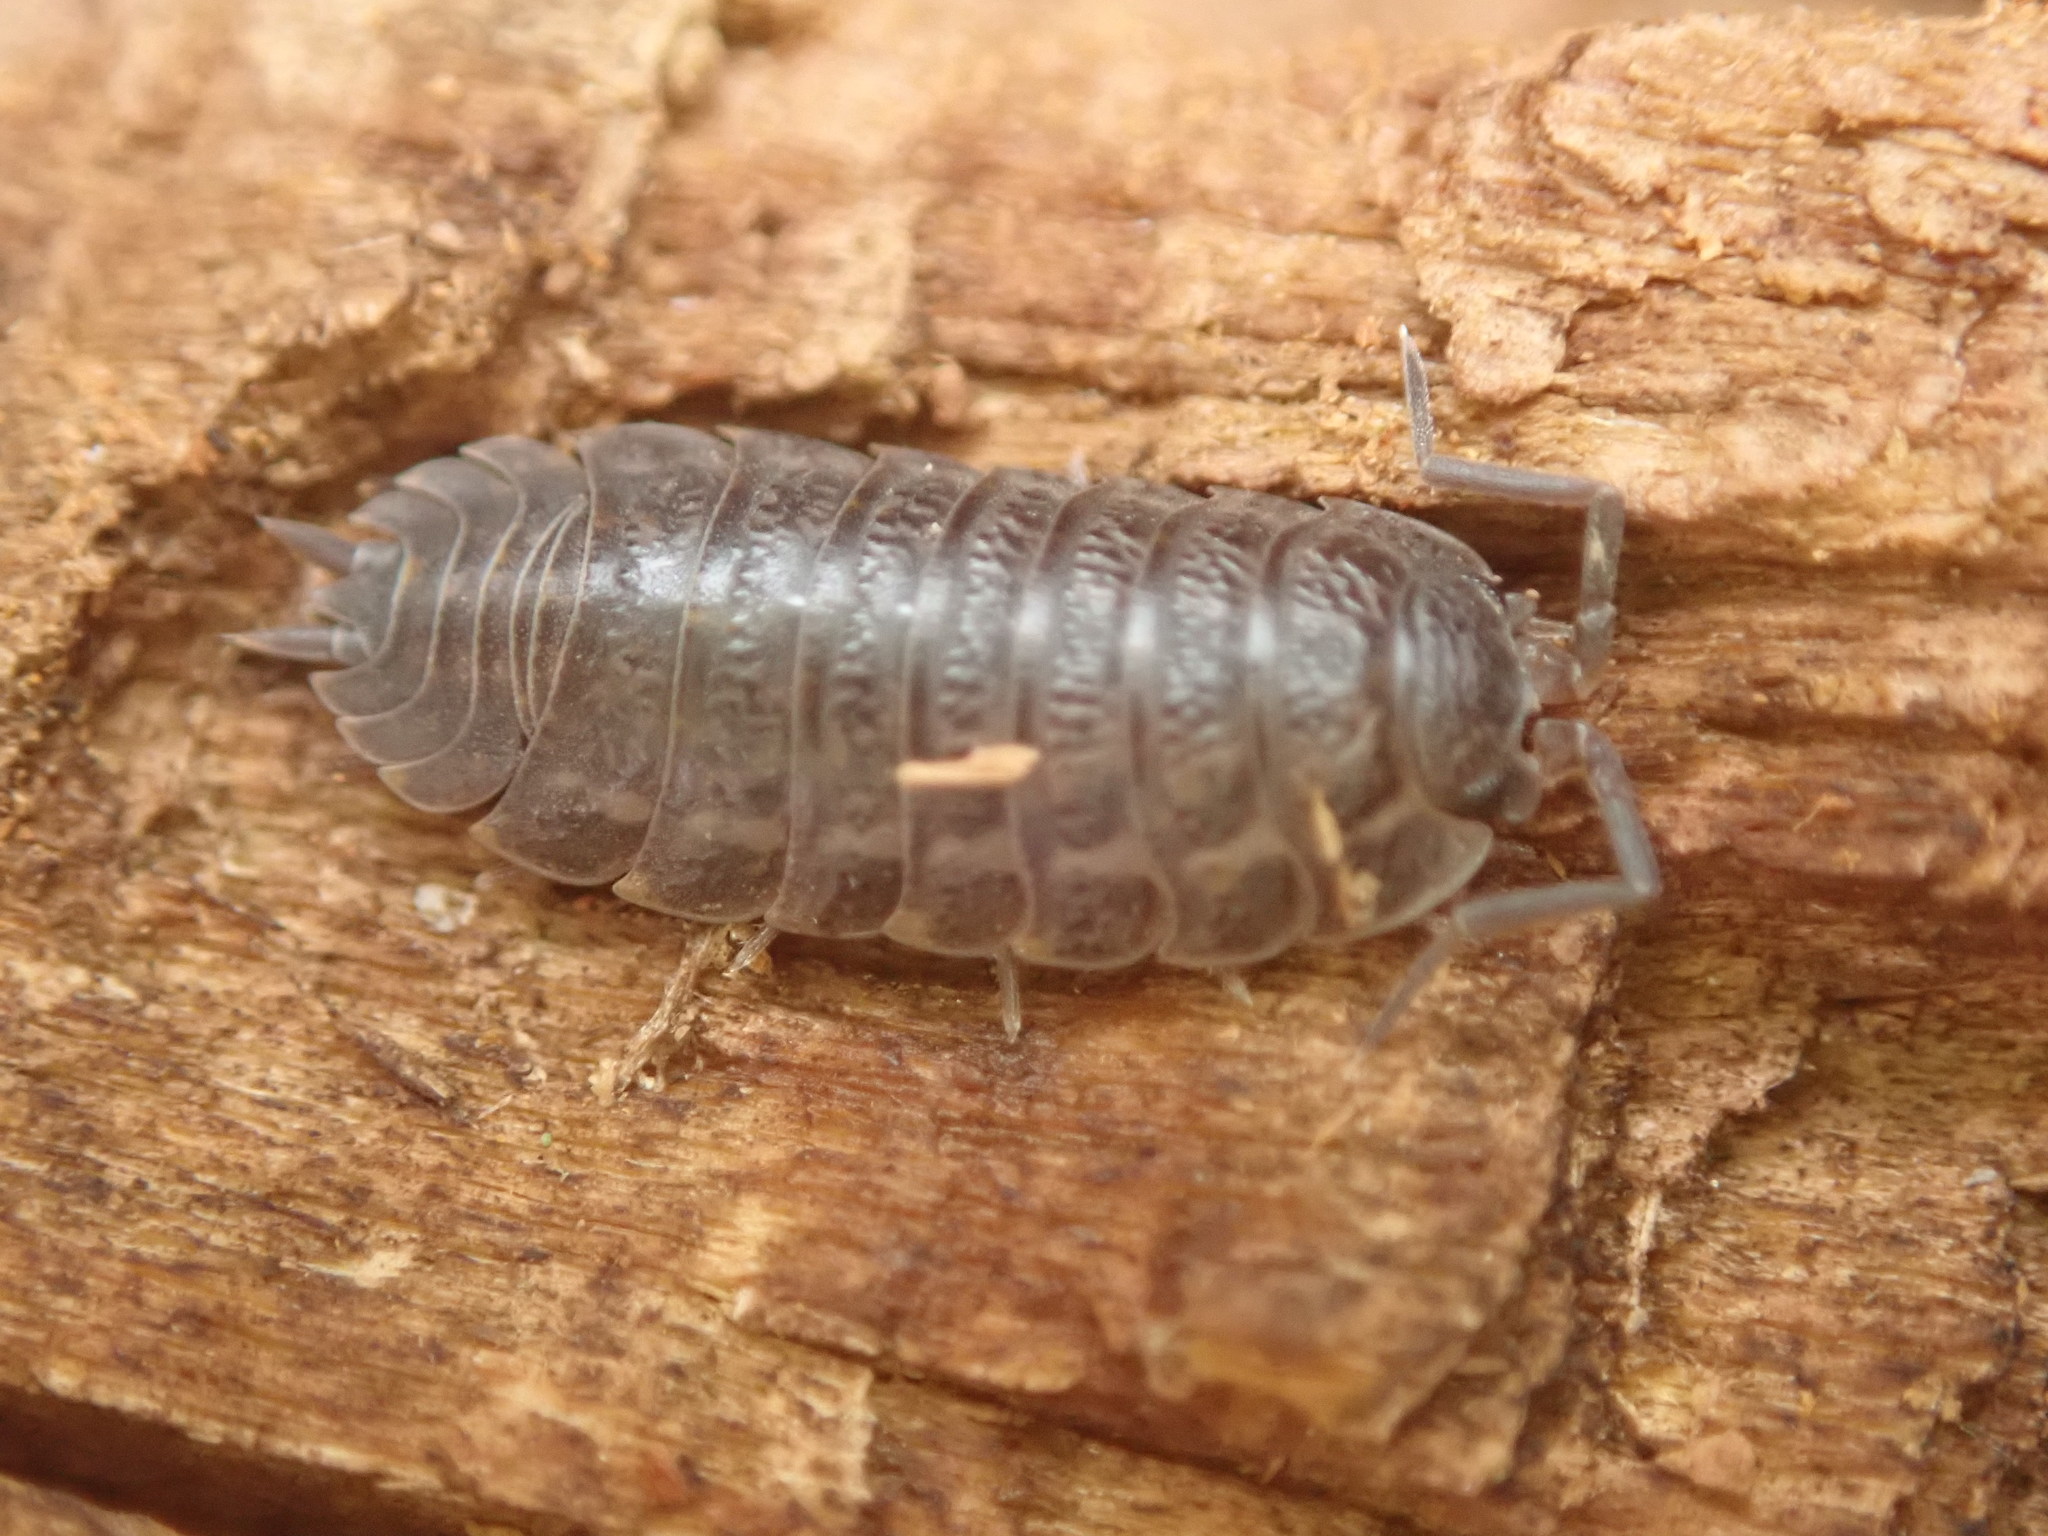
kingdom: Animalia
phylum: Arthropoda
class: Malacostraca
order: Isopoda
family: Trachelipodidae
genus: Trachelipus
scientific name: Trachelipus rathkii
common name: Isopod
